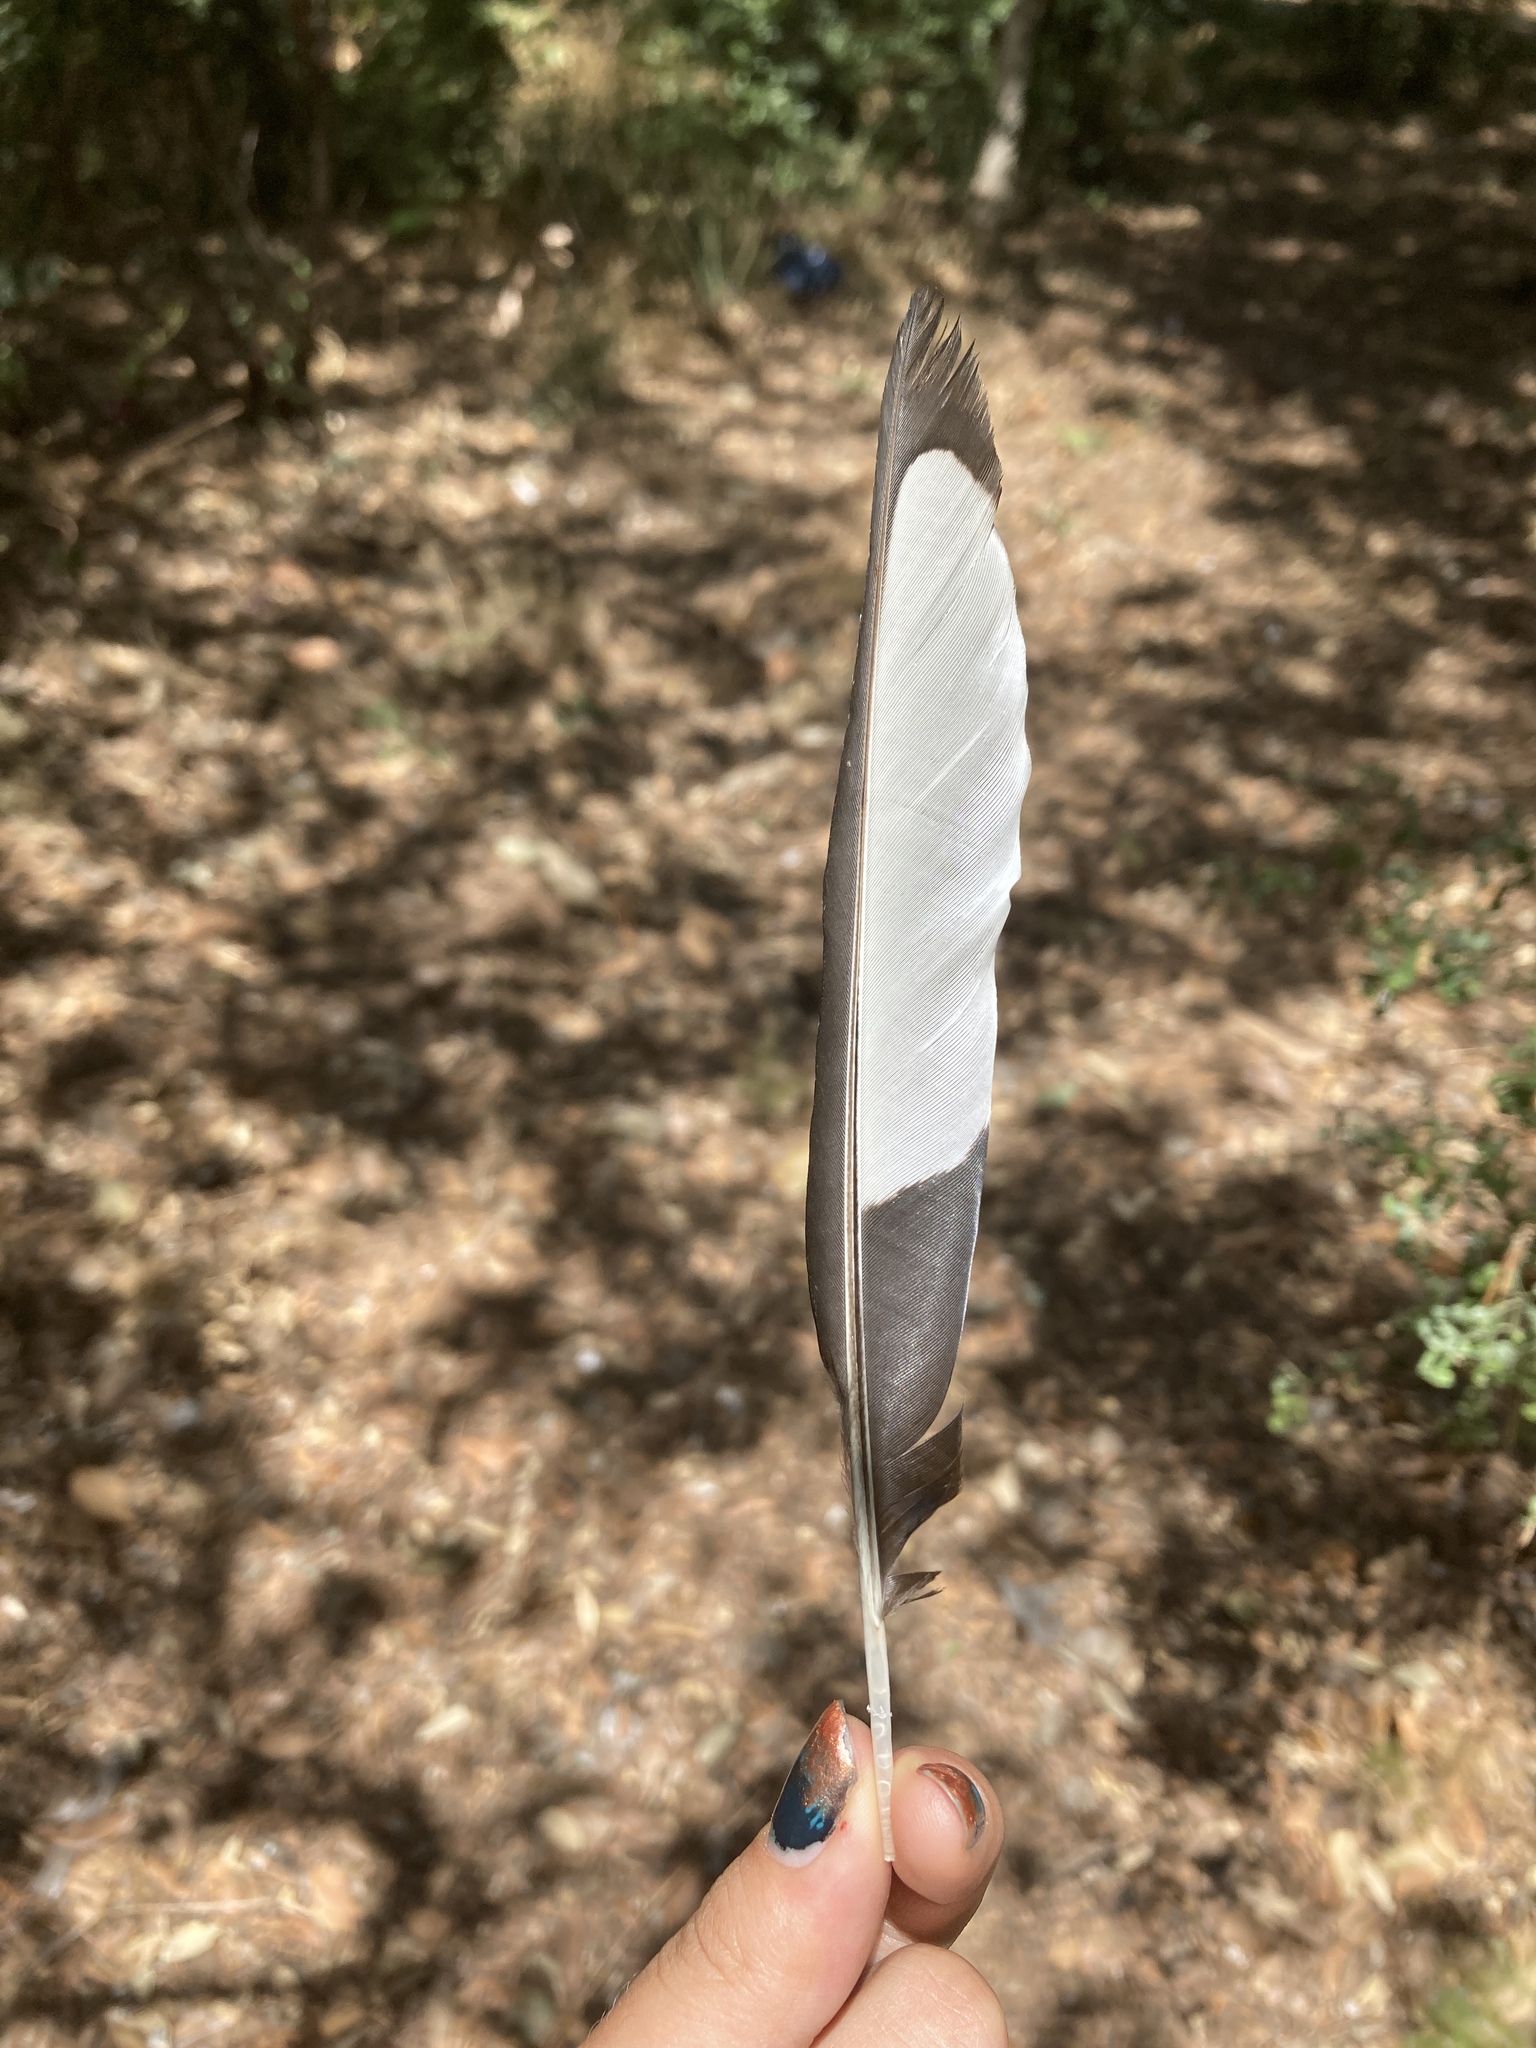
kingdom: Animalia
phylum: Chordata
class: Aves
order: Passeriformes
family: Corvidae
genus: Pica
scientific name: Pica pica
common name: Eurasian magpie
